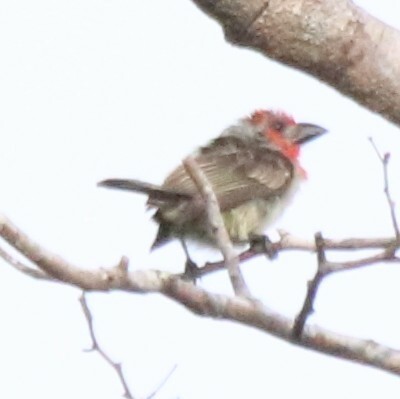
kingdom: Animalia
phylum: Chordata
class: Aves
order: Piciformes
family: Lybiidae
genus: Lybius
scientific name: Lybius vieilloti
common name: Vieillot's barbet
